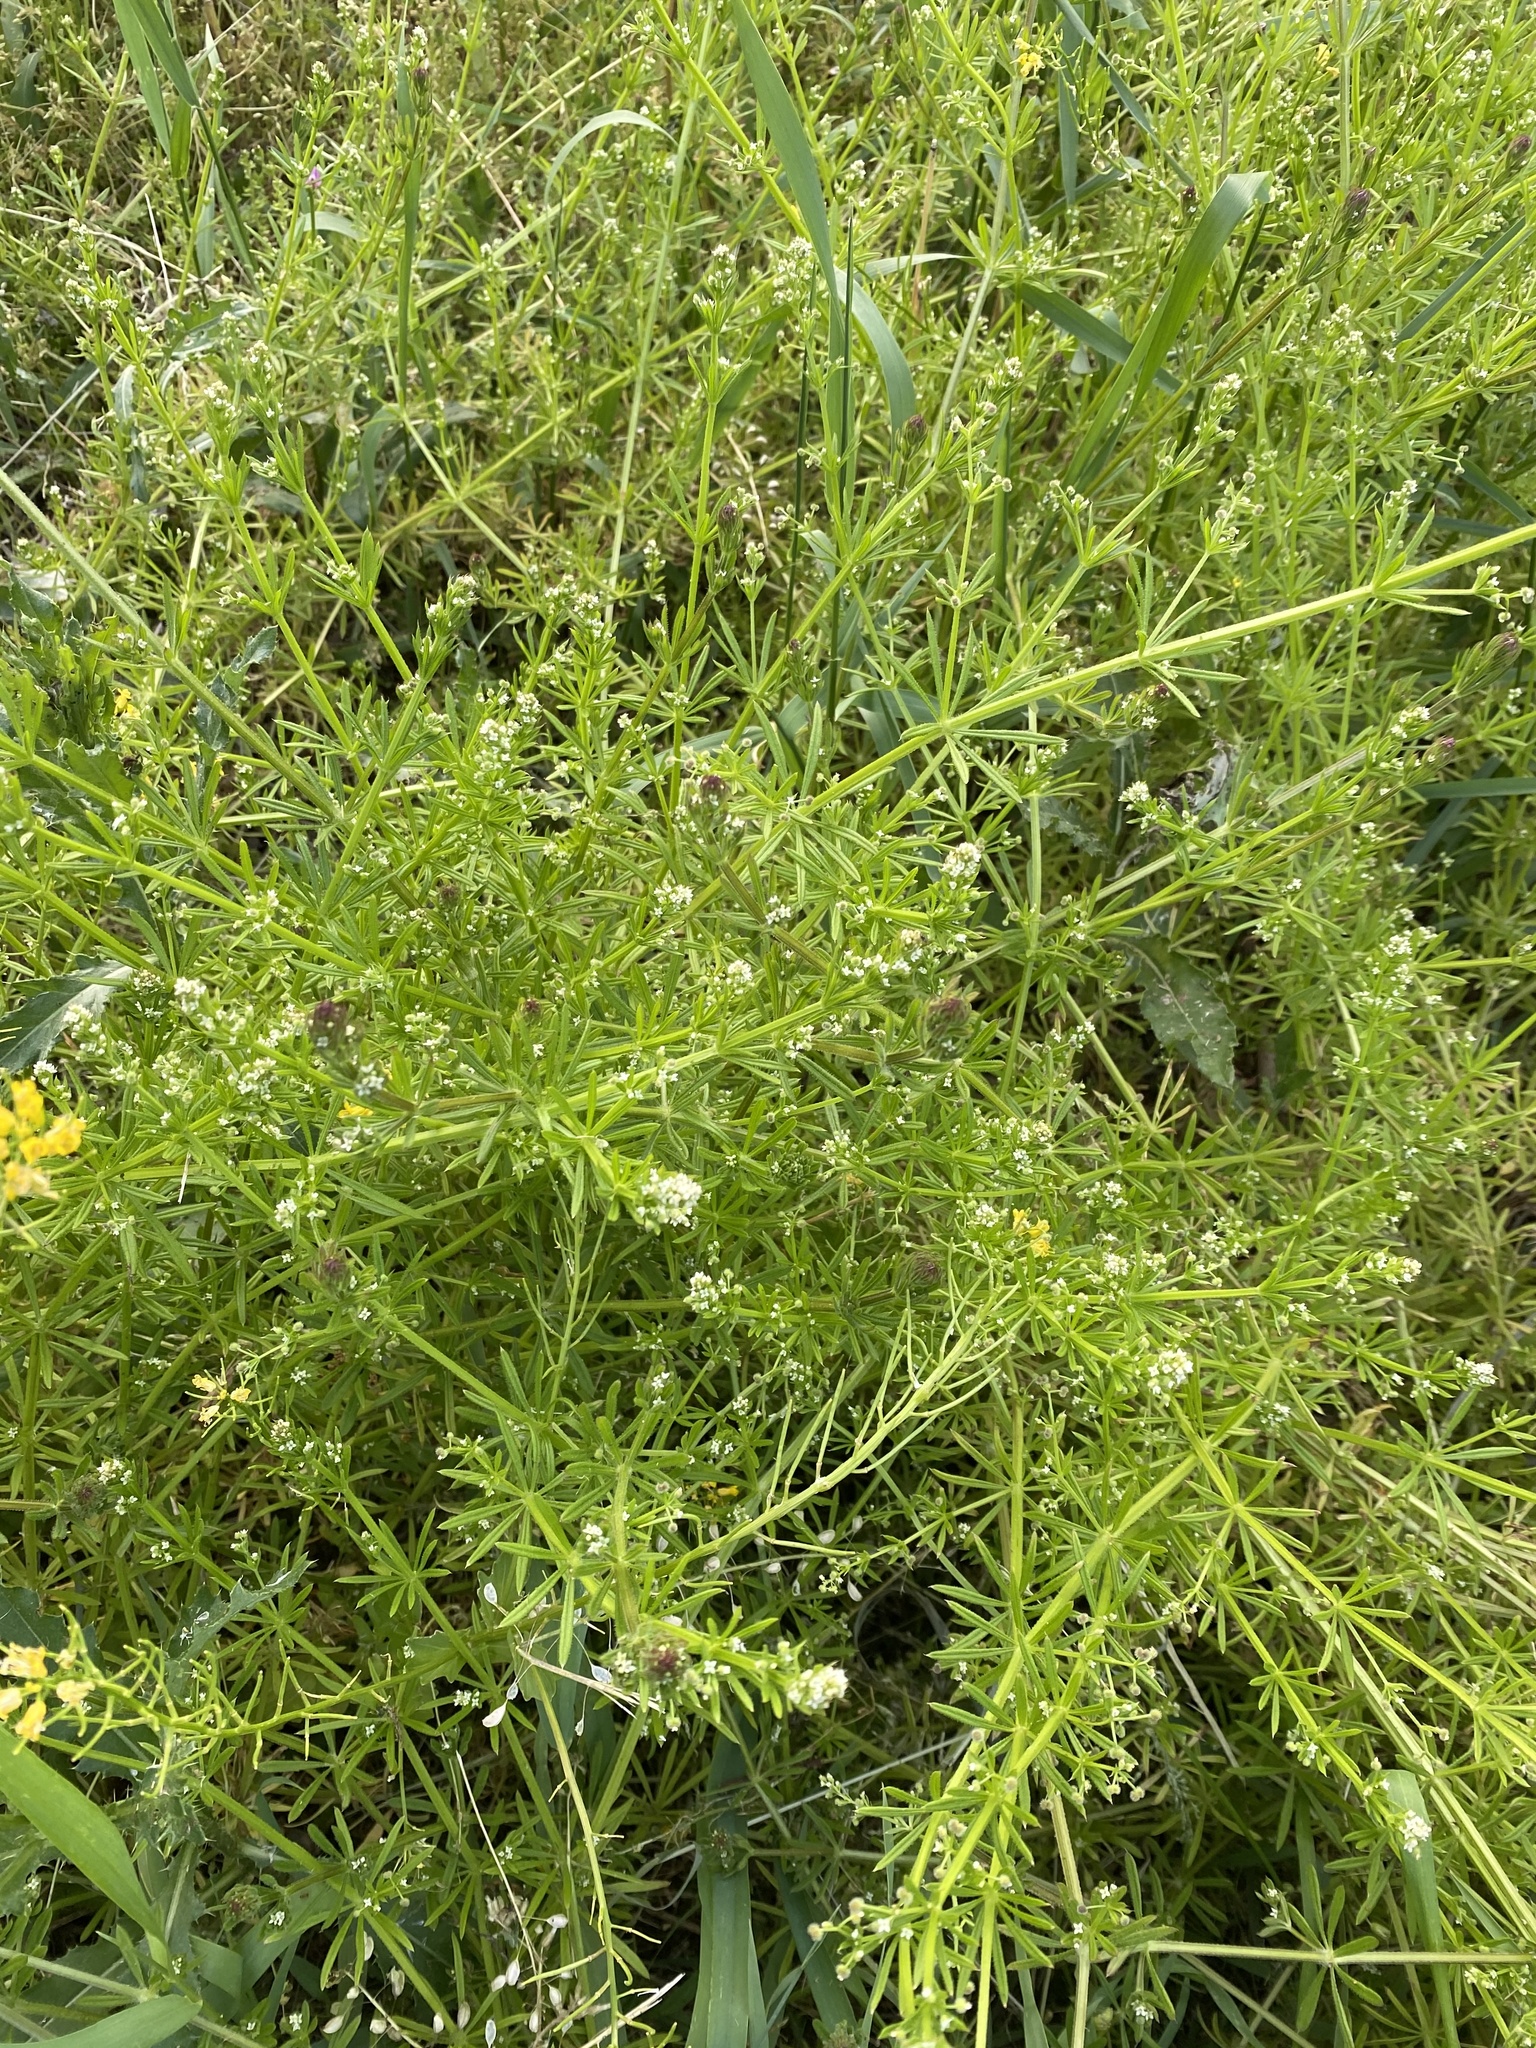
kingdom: Plantae
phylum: Tracheophyta
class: Magnoliopsida
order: Gentianales
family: Rubiaceae
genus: Galium
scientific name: Galium aparine
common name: Cleavers
